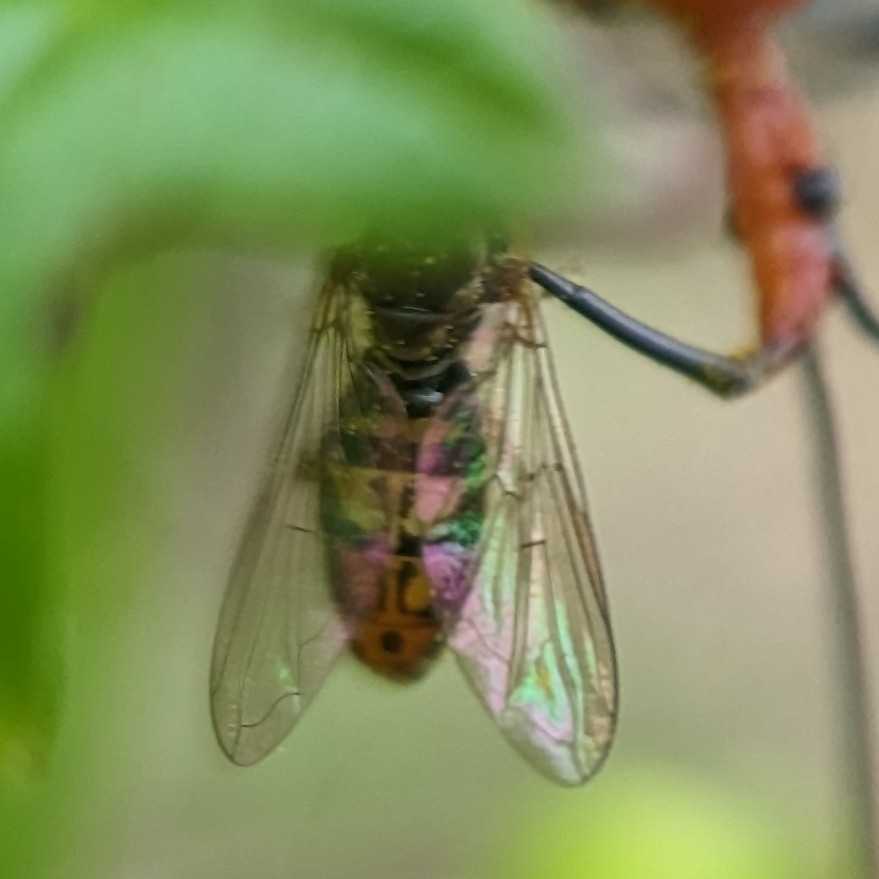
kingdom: Animalia
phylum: Arthropoda
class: Insecta
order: Diptera
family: Syrphidae
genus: Toxomerus
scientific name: Toxomerus marginatus
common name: Syrphid fly
